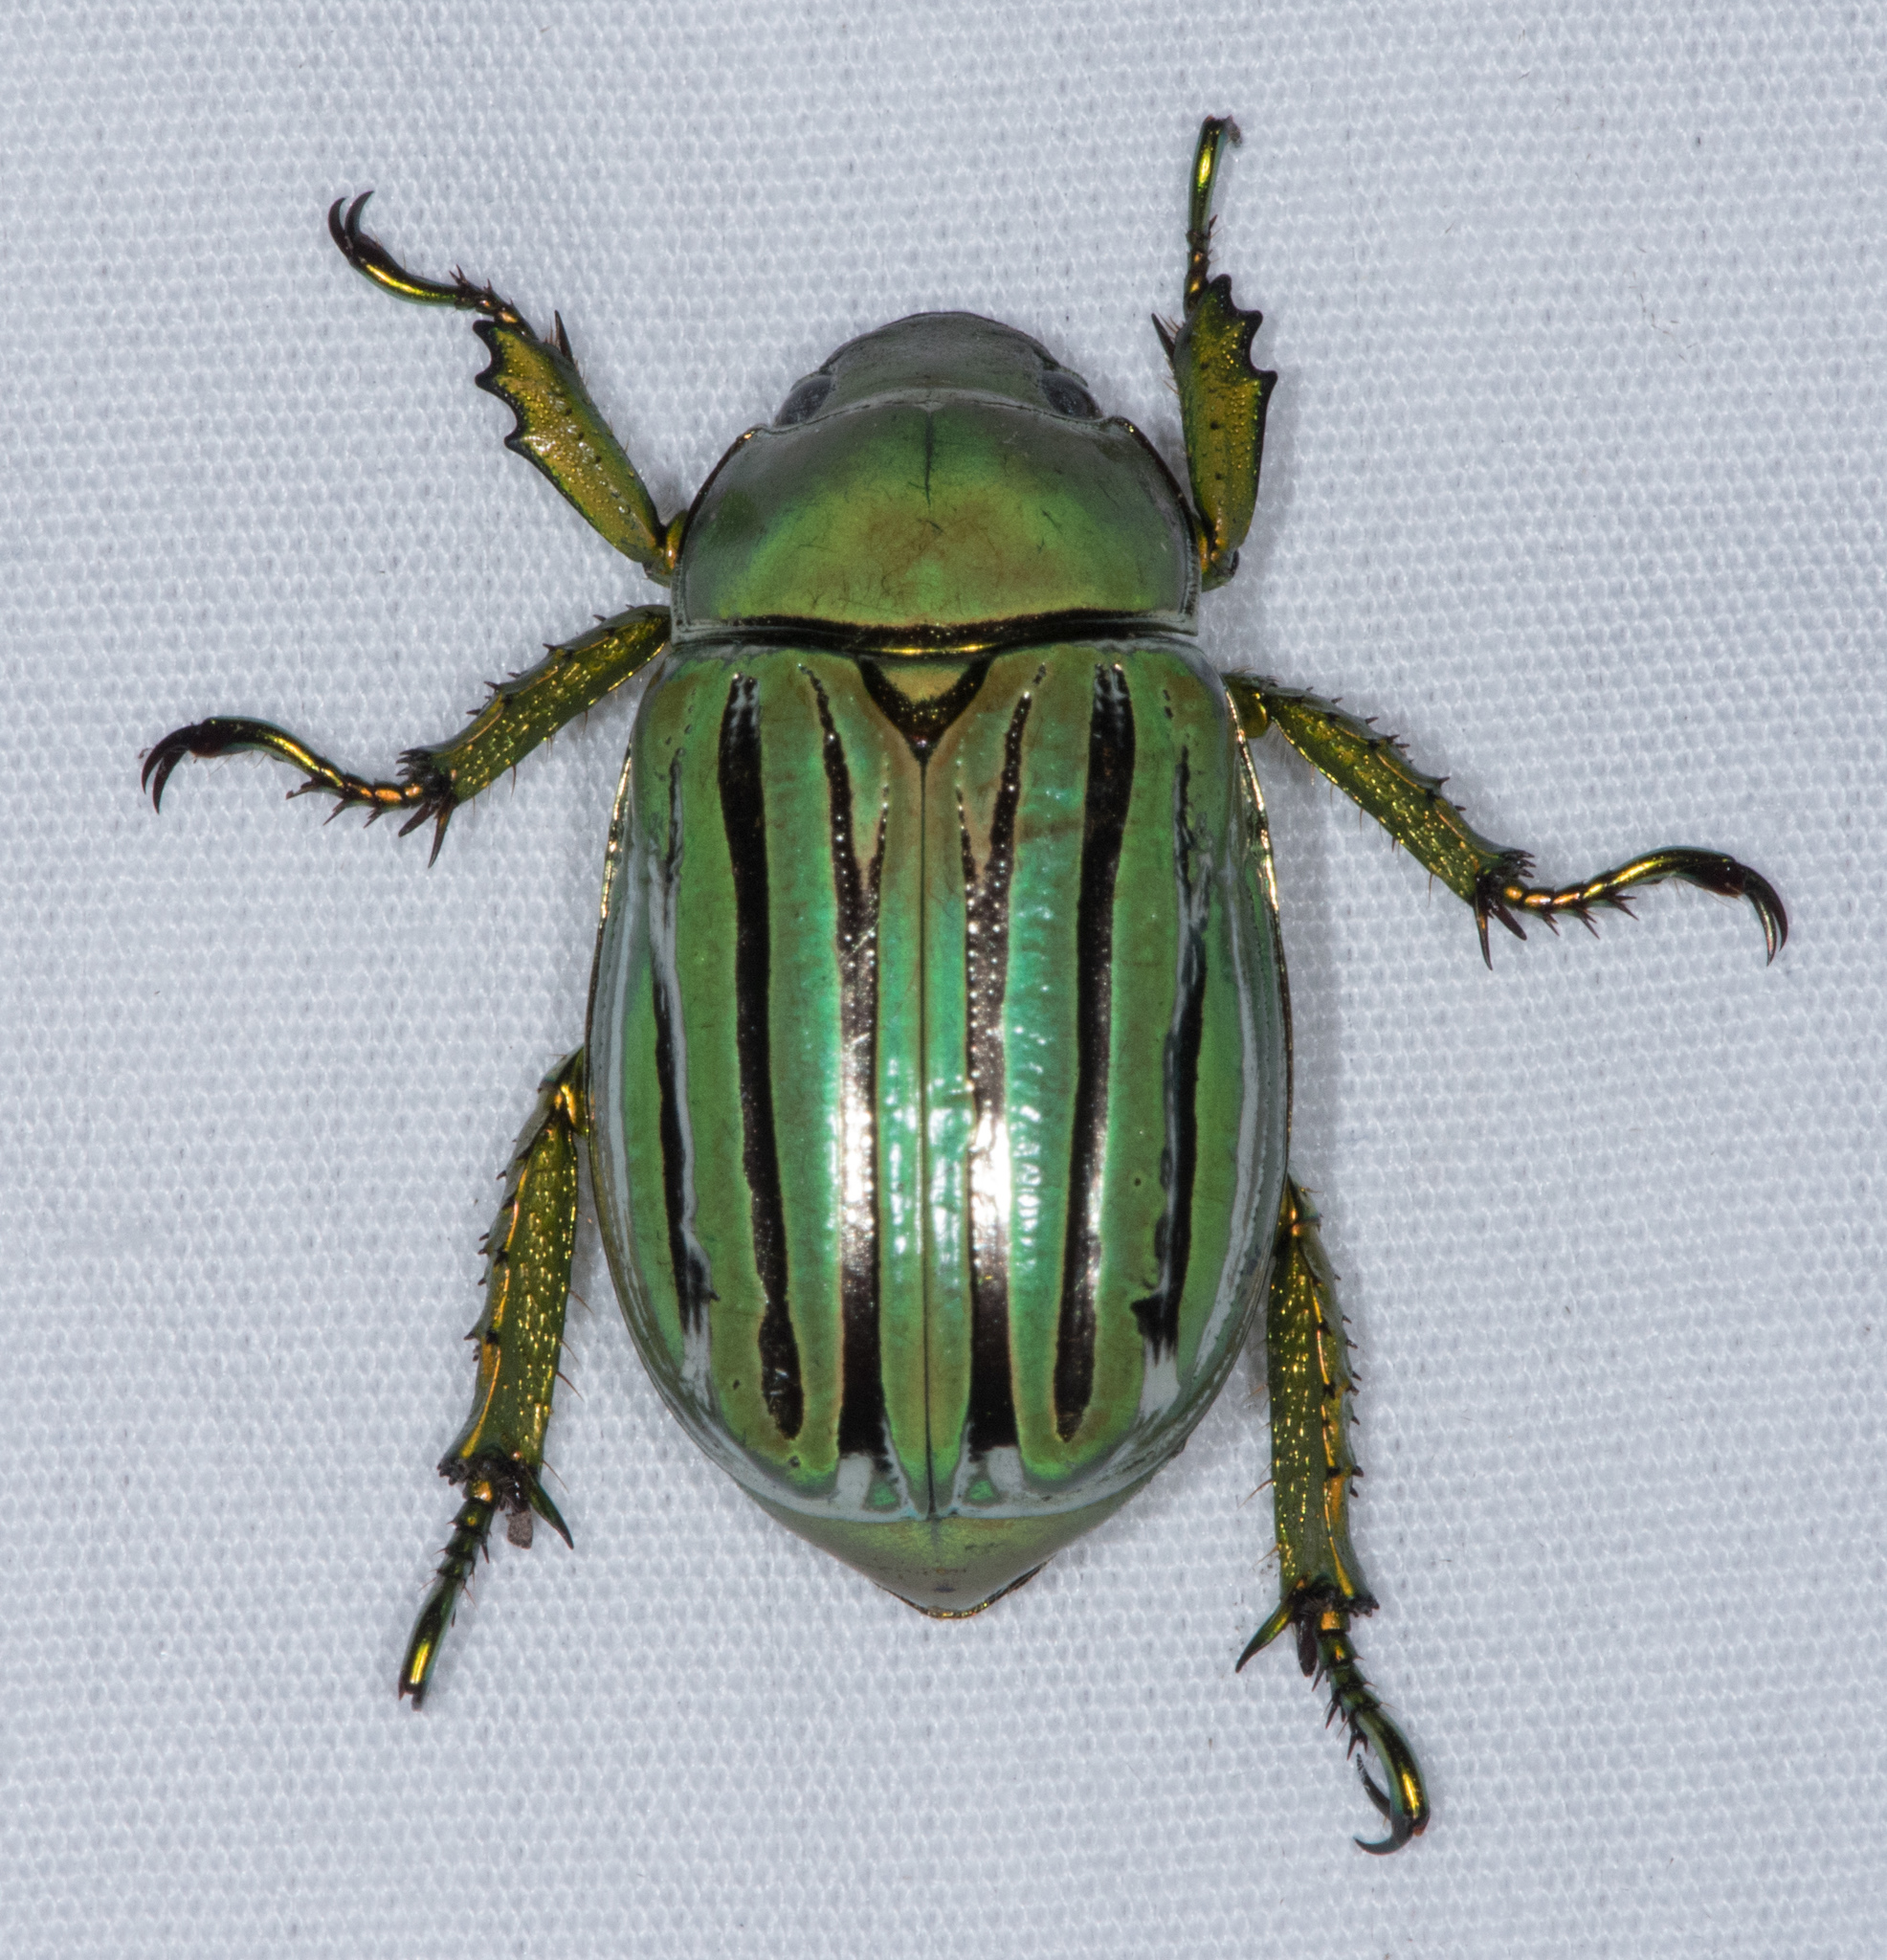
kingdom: Animalia
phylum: Arthropoda
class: Insecta
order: Coleoptera
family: Scarabaeidae
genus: Chrysina
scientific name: Chrysina gloriosa
